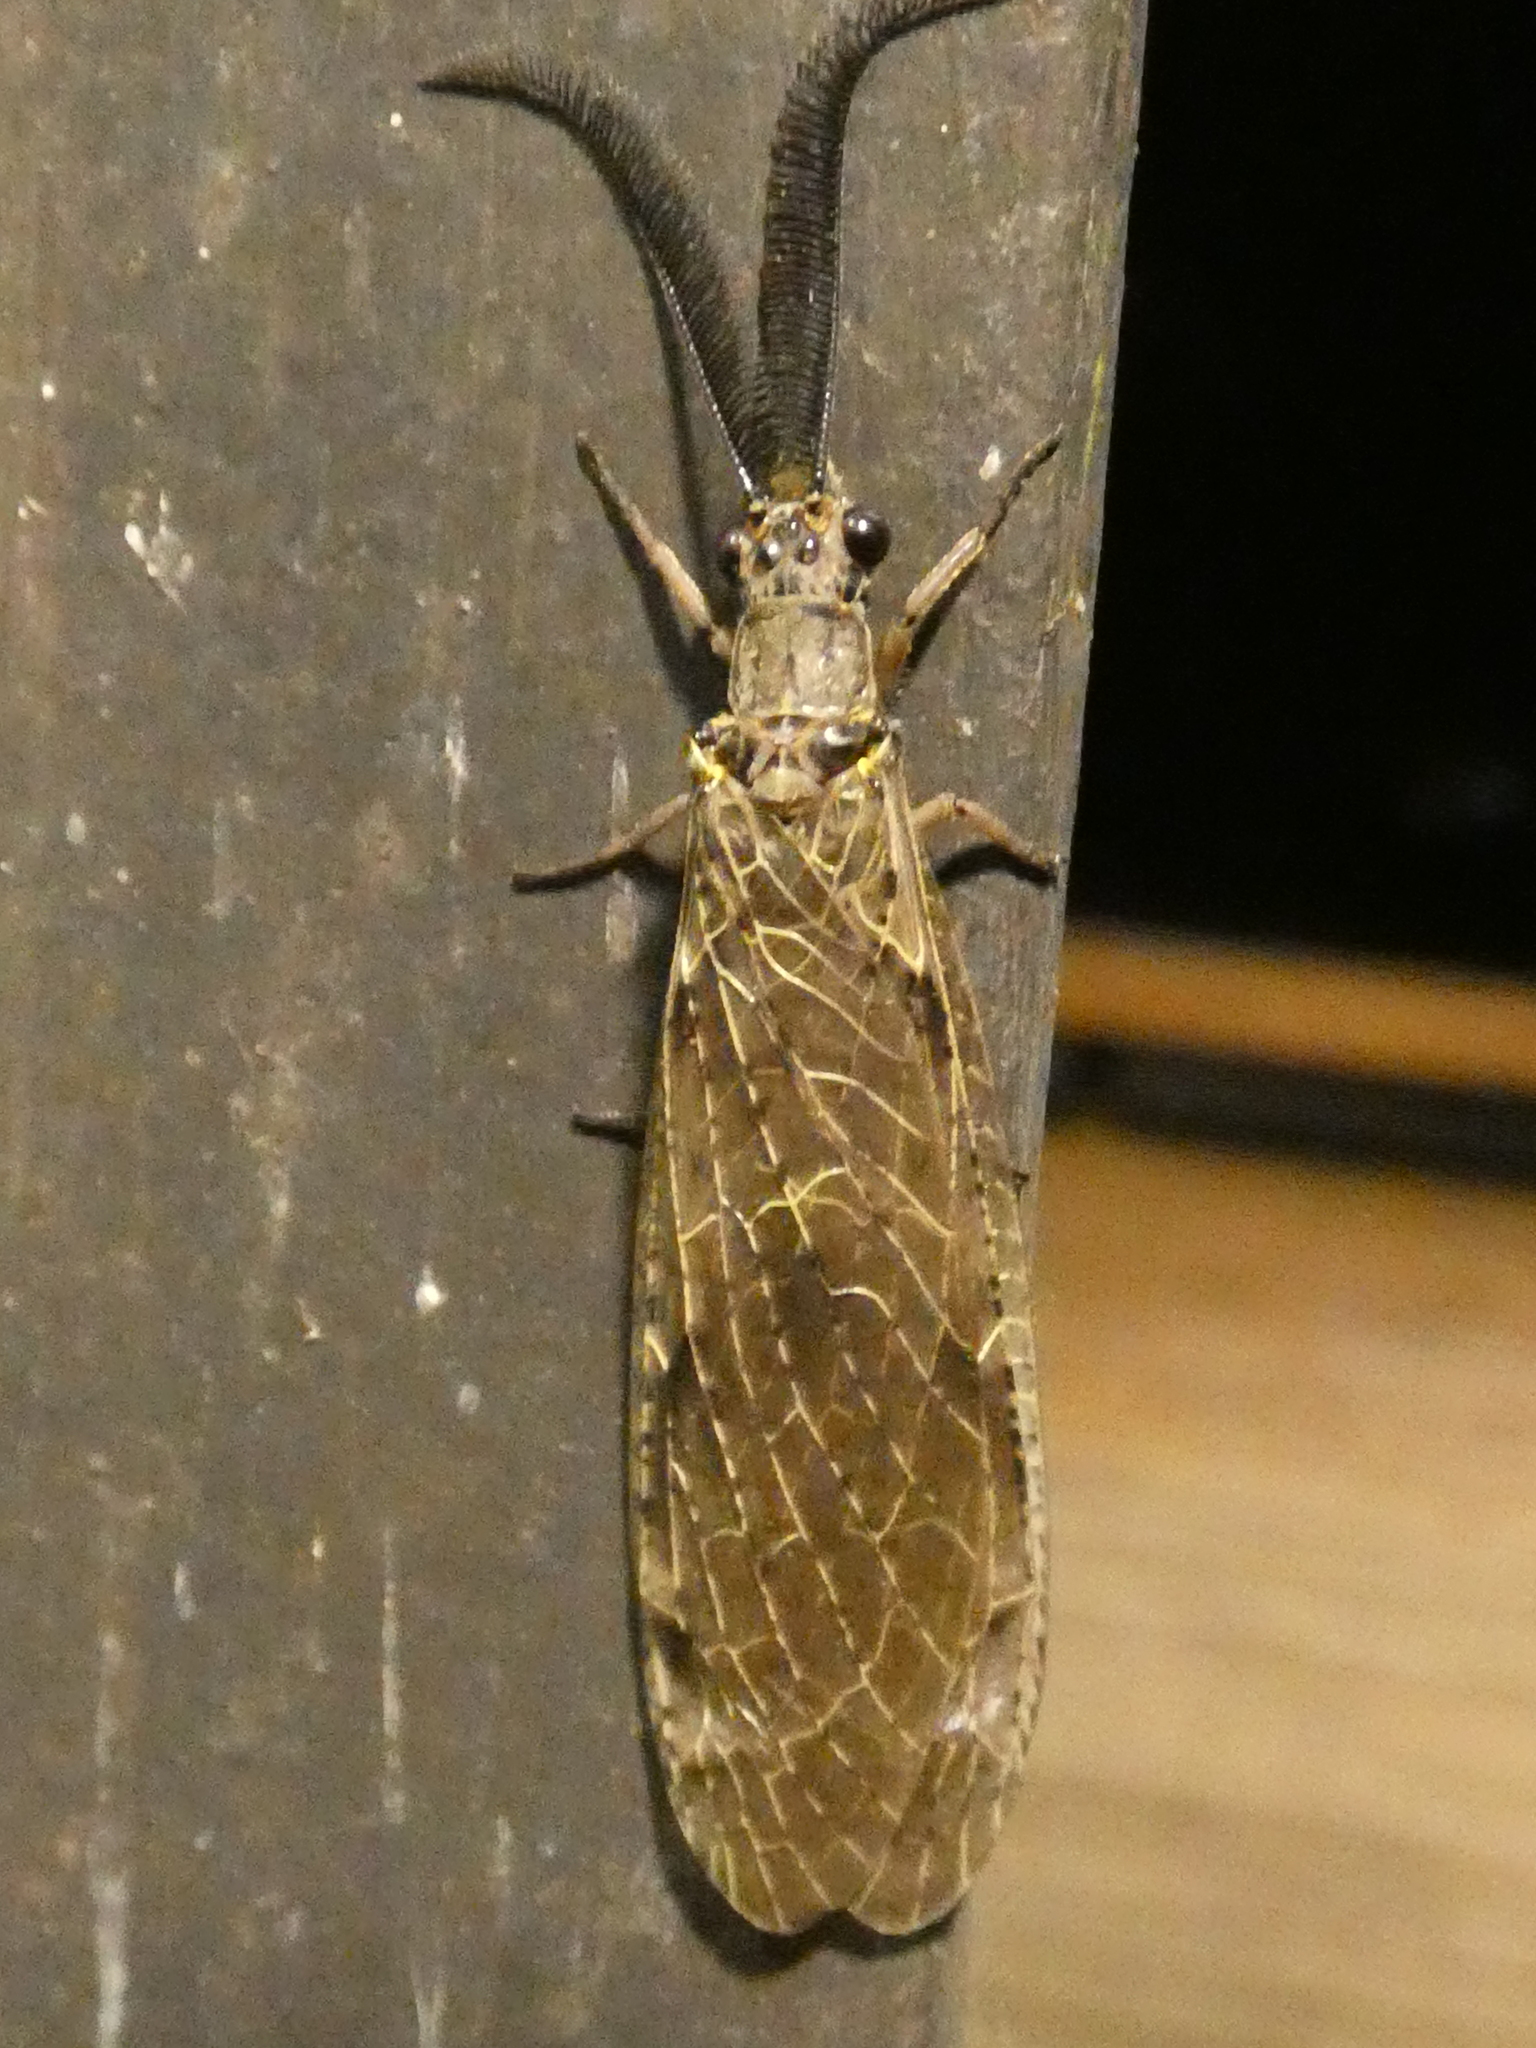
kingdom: Animalia
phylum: Arthropoda
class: Insecta
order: Megaloptera
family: Corydalidae
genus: Chauliodes
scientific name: Chauliodes rastricornis
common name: Spring fishfly
